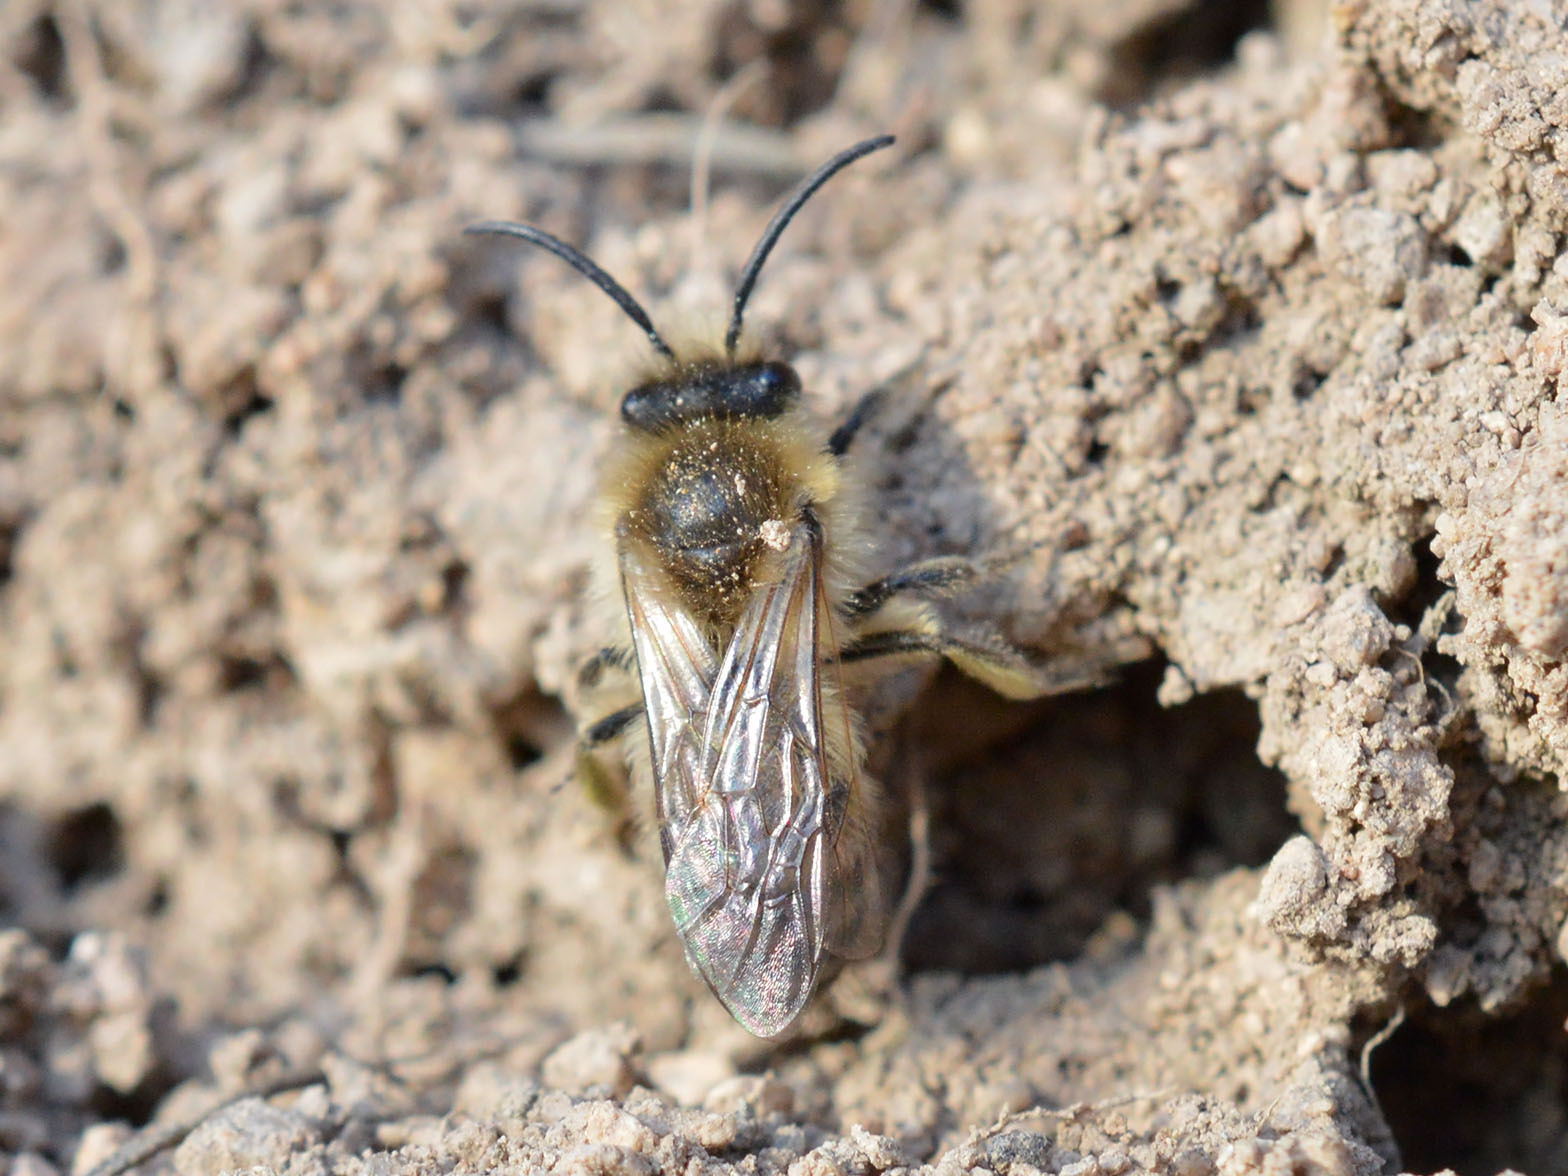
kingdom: Animalia
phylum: Arthropoda
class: Insecta
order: Hymenoptera
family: Colletidae
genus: Colletes
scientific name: Colletes cunicularius
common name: Early colletes
